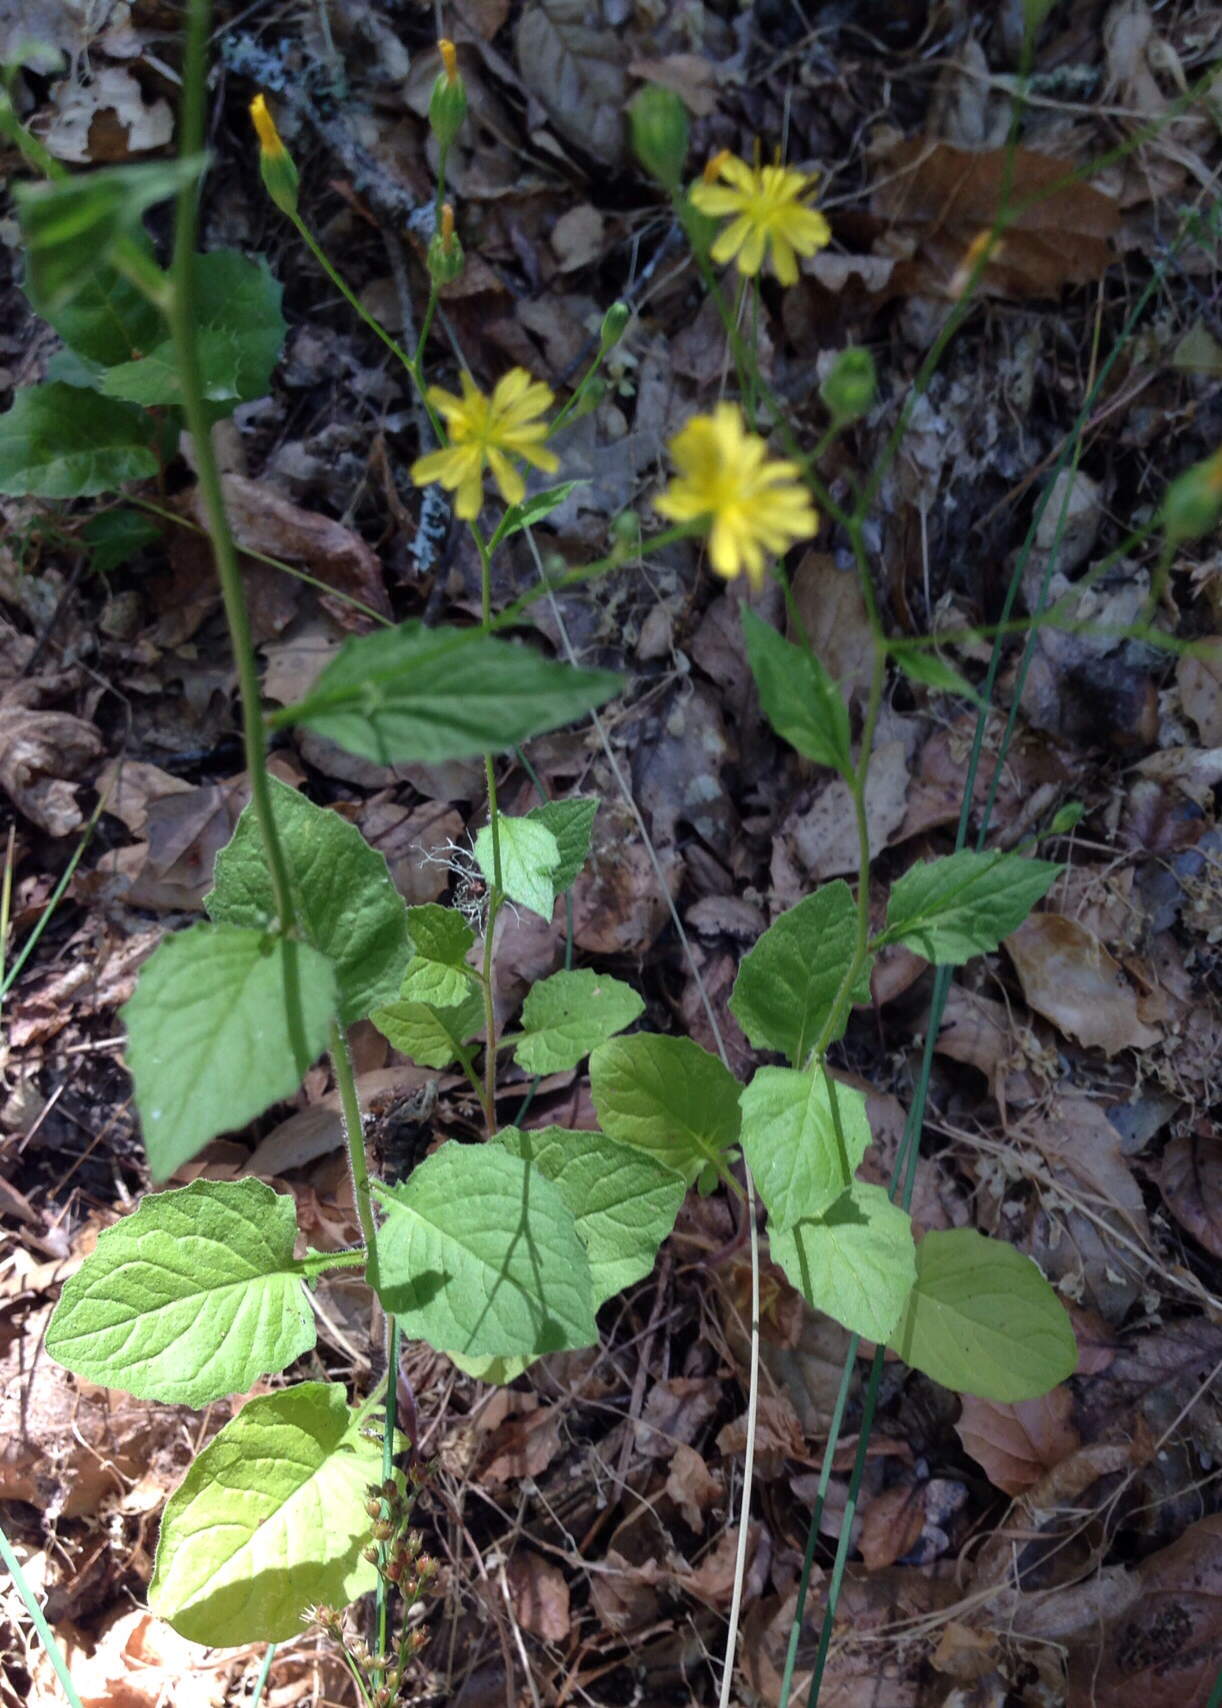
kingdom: Plantae
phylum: Tracheophyta
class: Magnoliopsida
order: Asterales
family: Asteraceae
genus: Lapsana
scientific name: Lapsana communis
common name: Nipplewort
